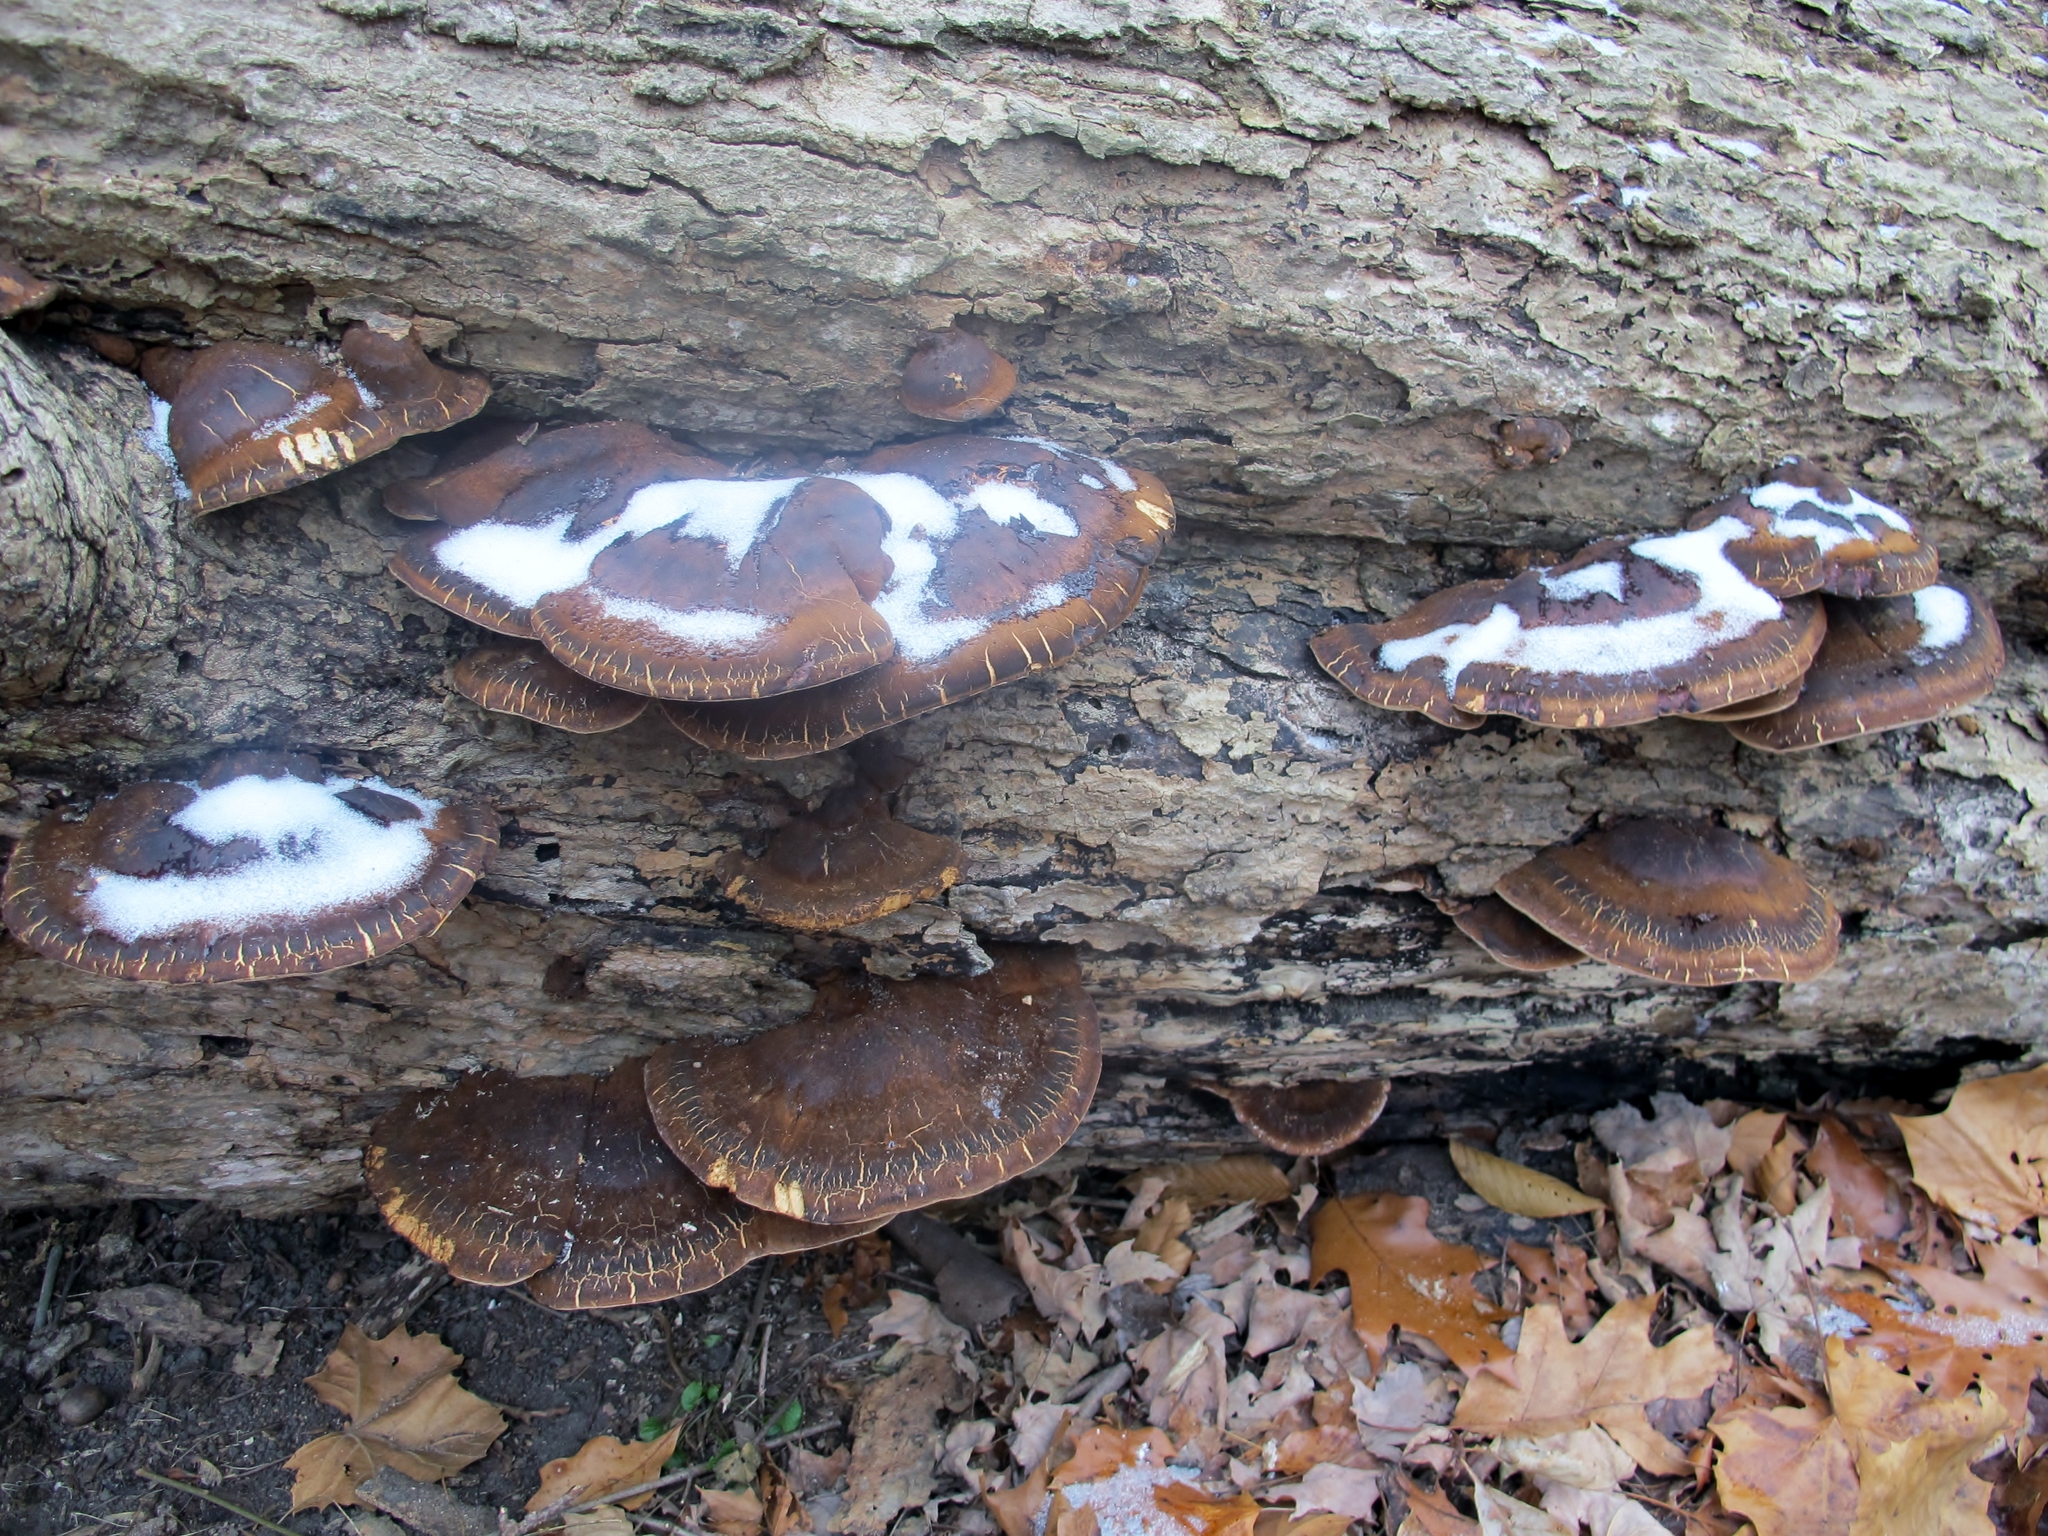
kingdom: Fungi
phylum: Basidiomycota
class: Agaricomycetes
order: Polyporales
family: Ischnodermataceae
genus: Ischnoderma
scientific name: Ischnoderma resinosum
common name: Resinous polypore
